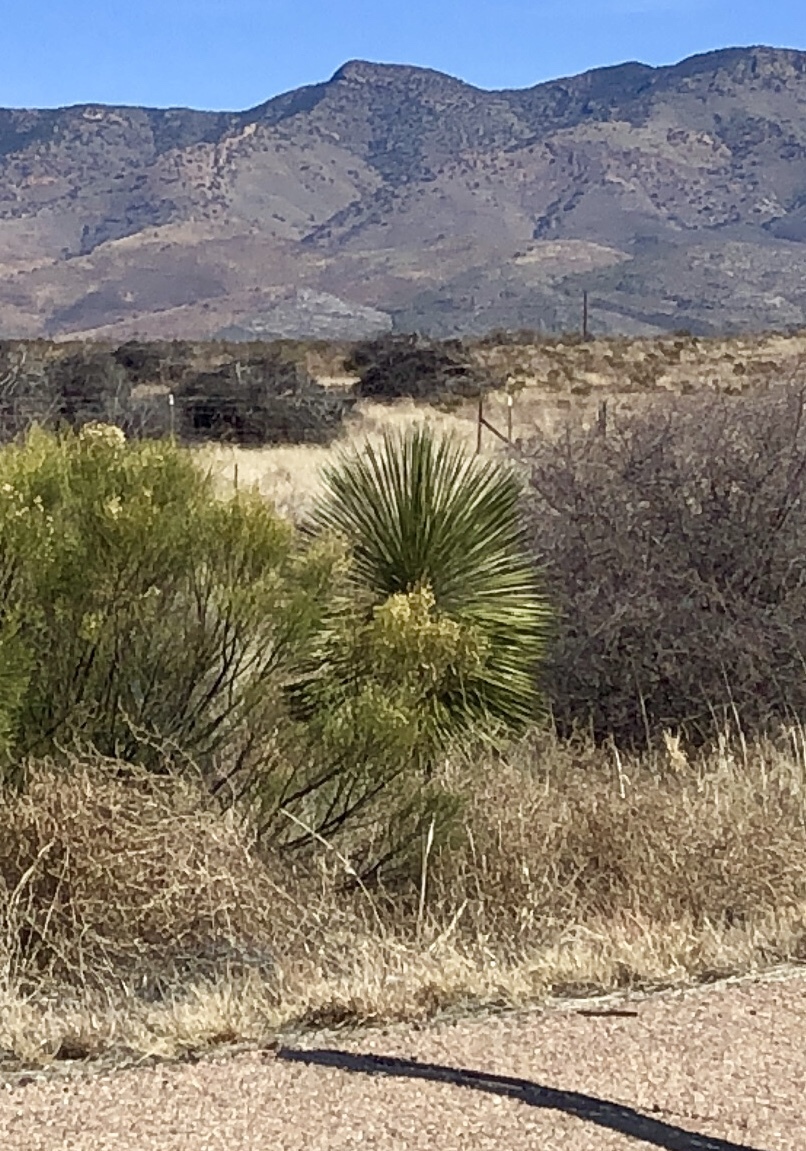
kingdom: Plantae
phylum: Tracheophyta
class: Liliopsida
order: Asparagales
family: Asparagaceae
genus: Yucca
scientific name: Yucca elata
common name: Palmella
